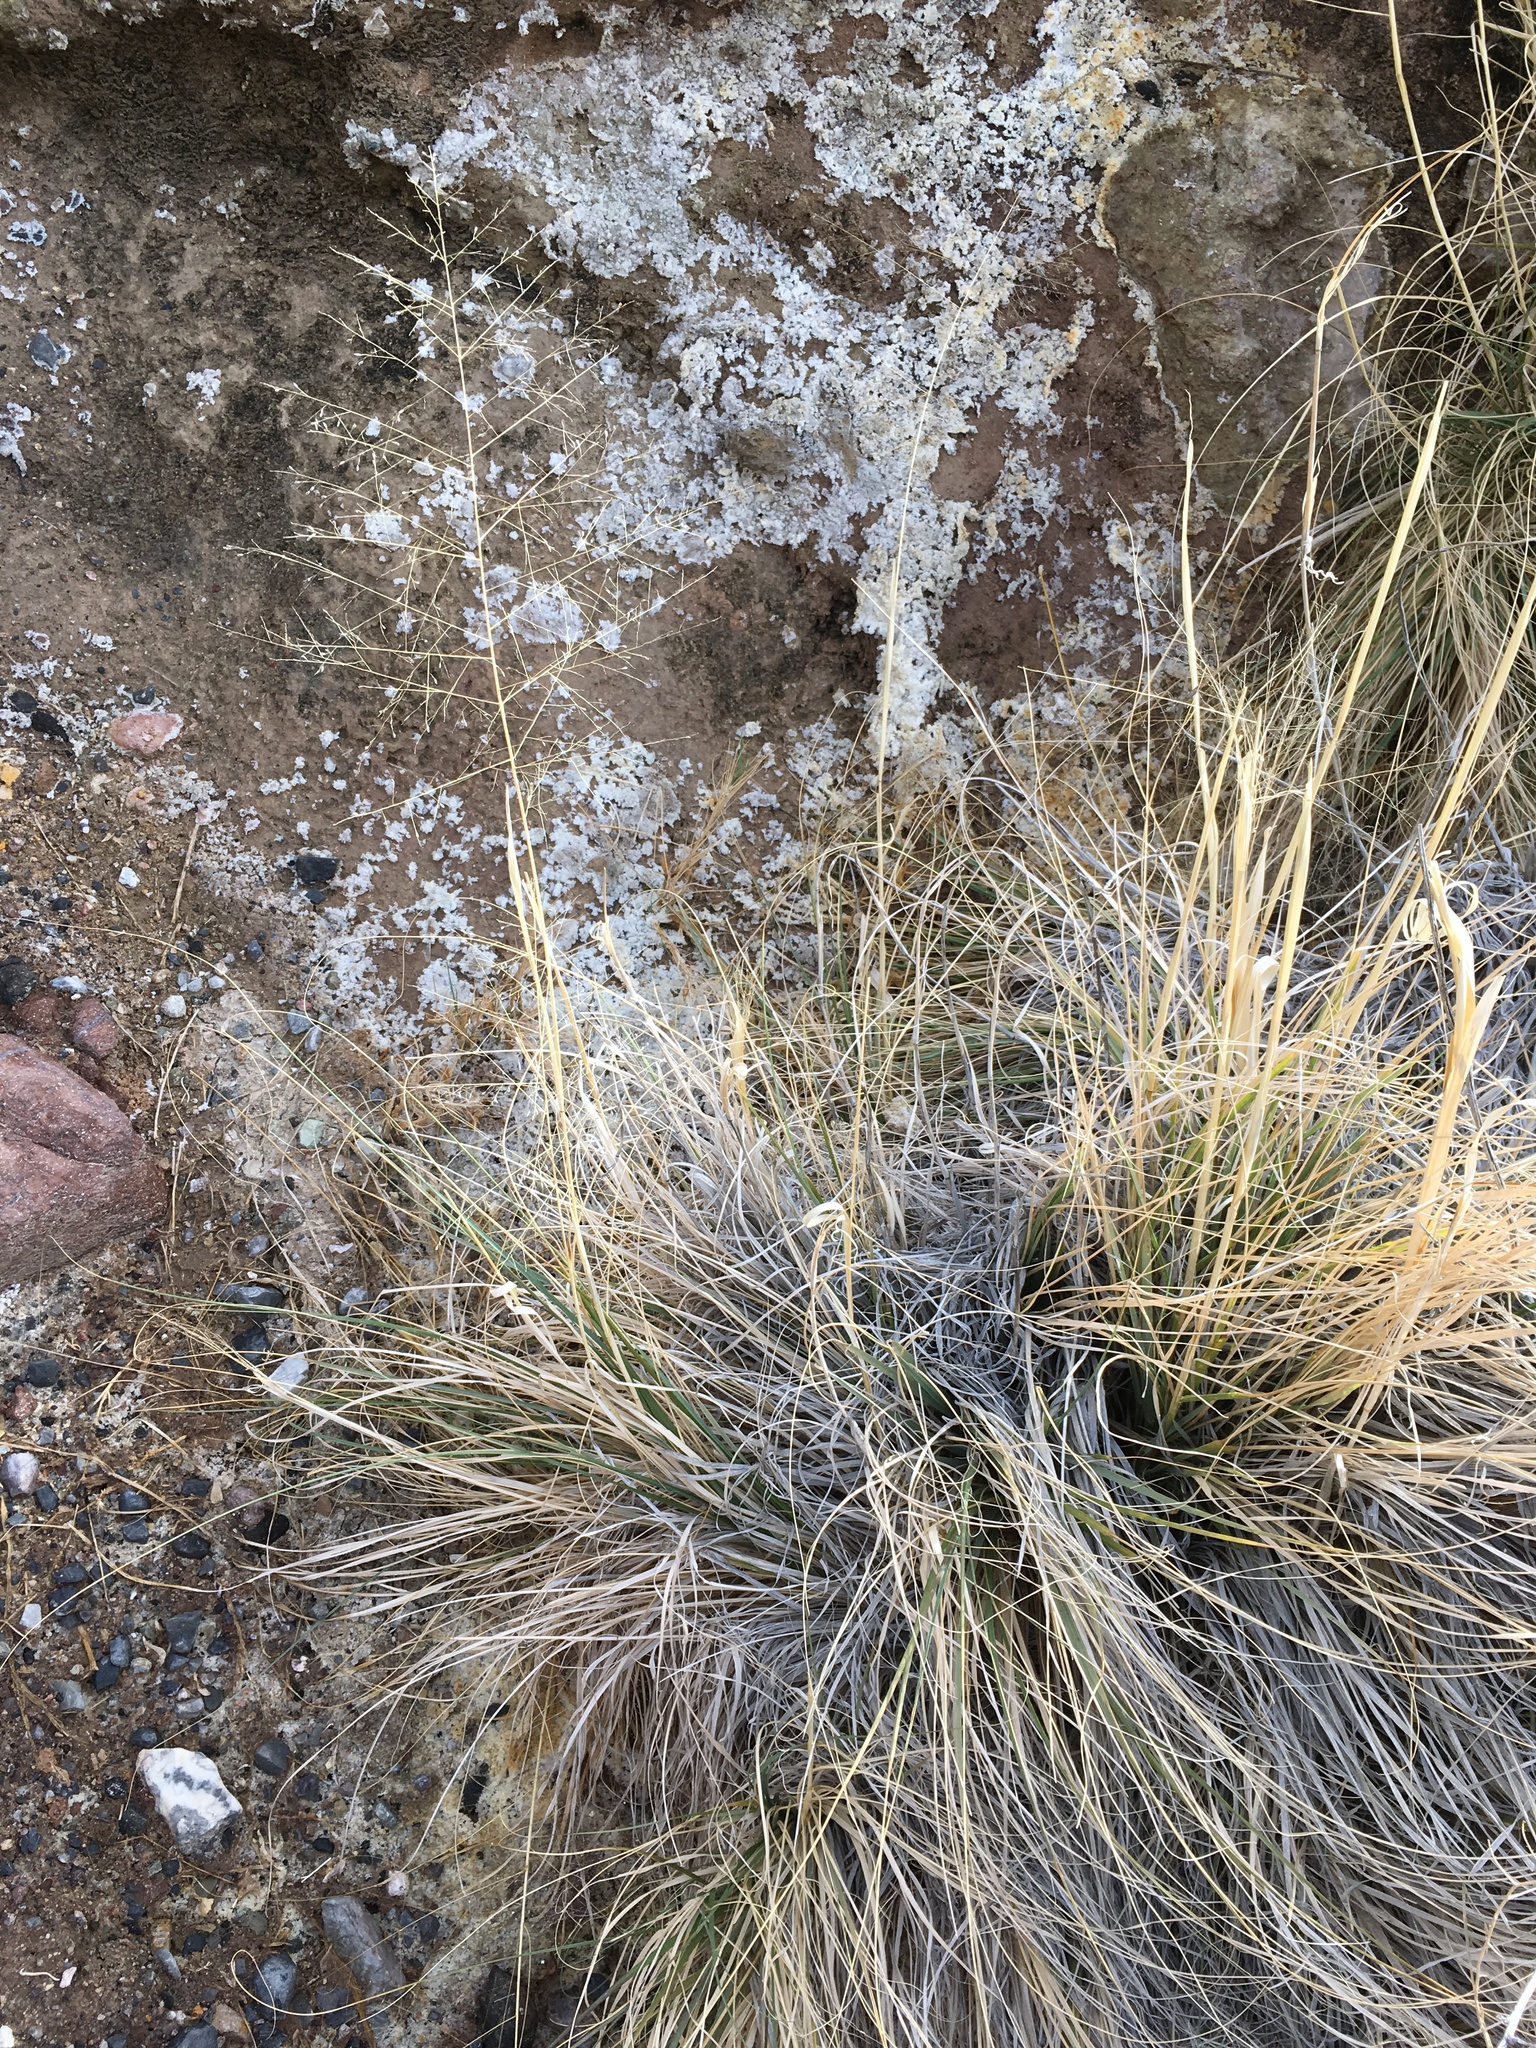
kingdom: Plantae
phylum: Tracheophyta
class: Liliopsida
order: Poales
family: Poaceae
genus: Sporobolus
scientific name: Sporobolus airoides
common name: Alkali sacaton
